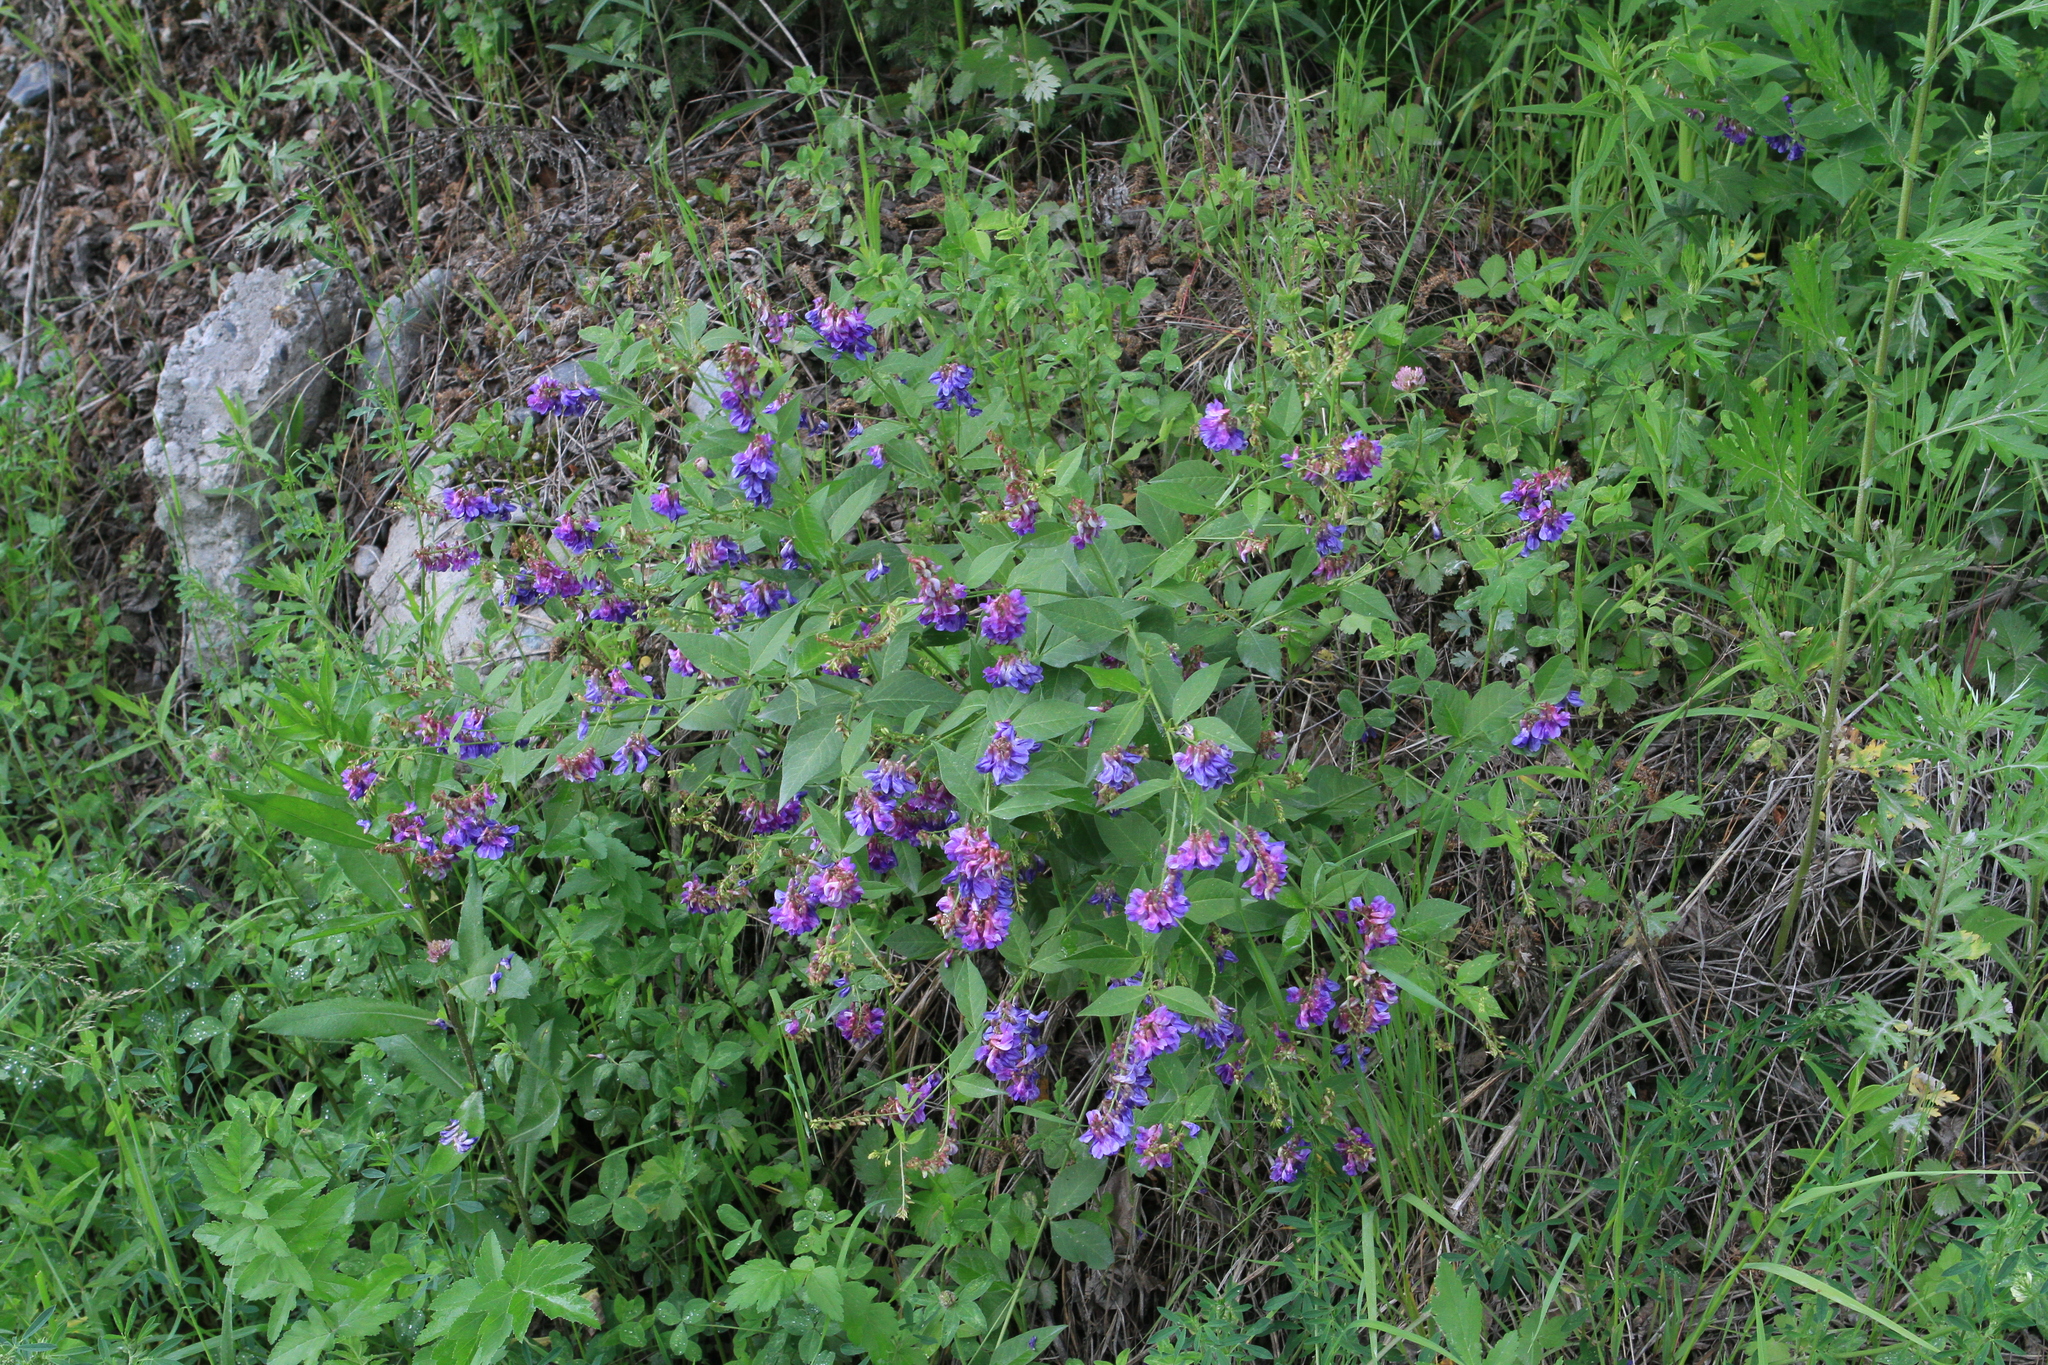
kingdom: Plantae
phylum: Tracheophyta
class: Magnoliopsida
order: Fabales
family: Fabaceae
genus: Vicia
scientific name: Vicia unijuga
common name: Two-leaf vetch
